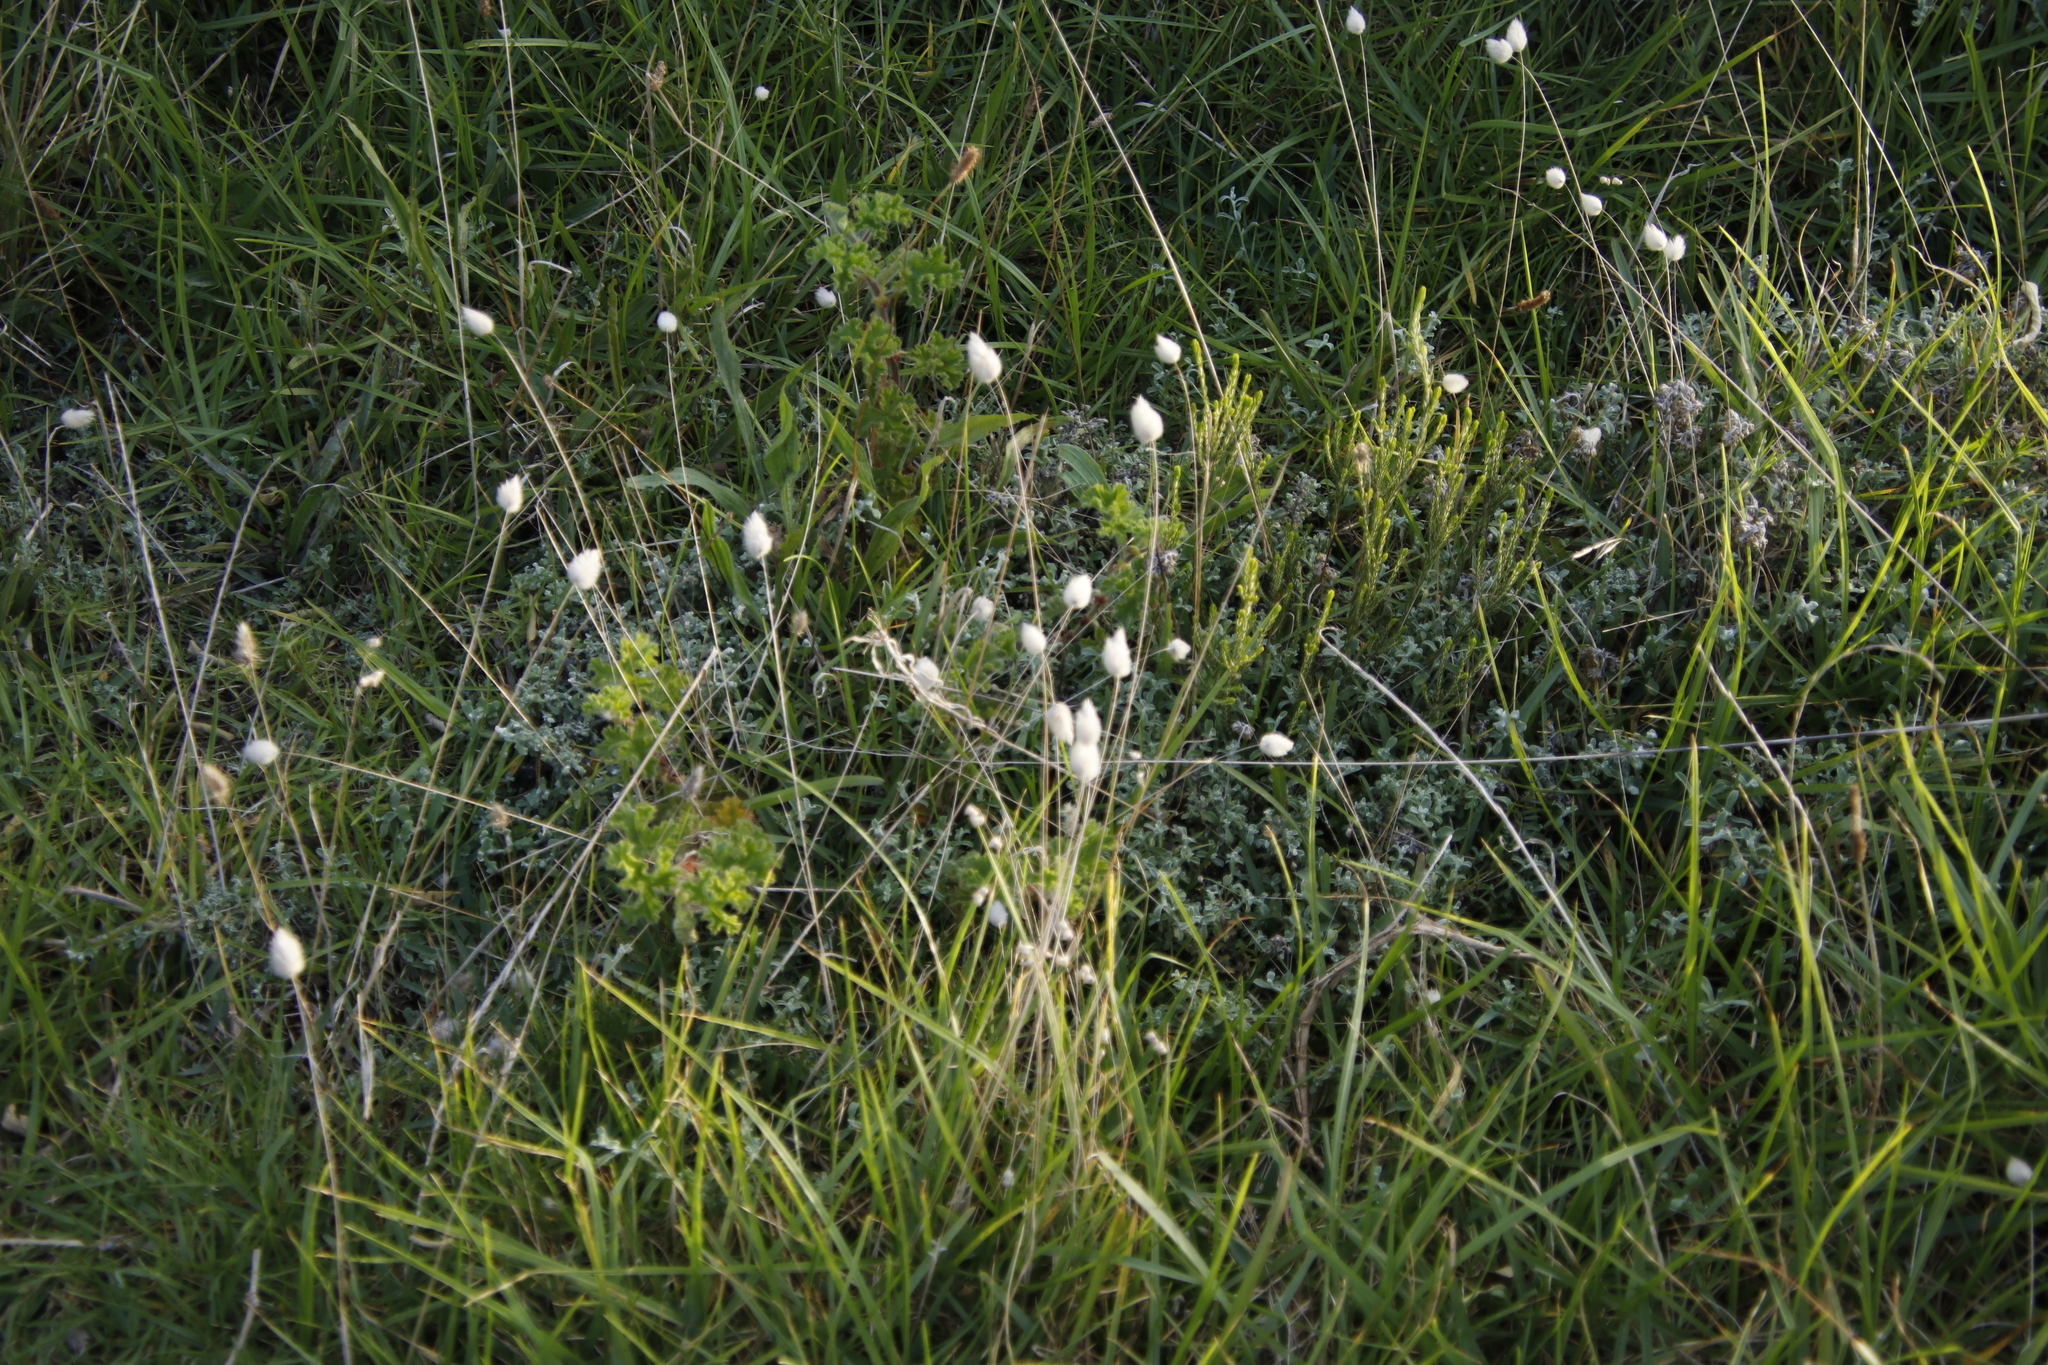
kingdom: Plantae
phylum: Tracheophyta
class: Liliopsida
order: Poales
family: Poaceae
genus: Lagurus
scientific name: Lagurus ovatus
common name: Hare's-tail
